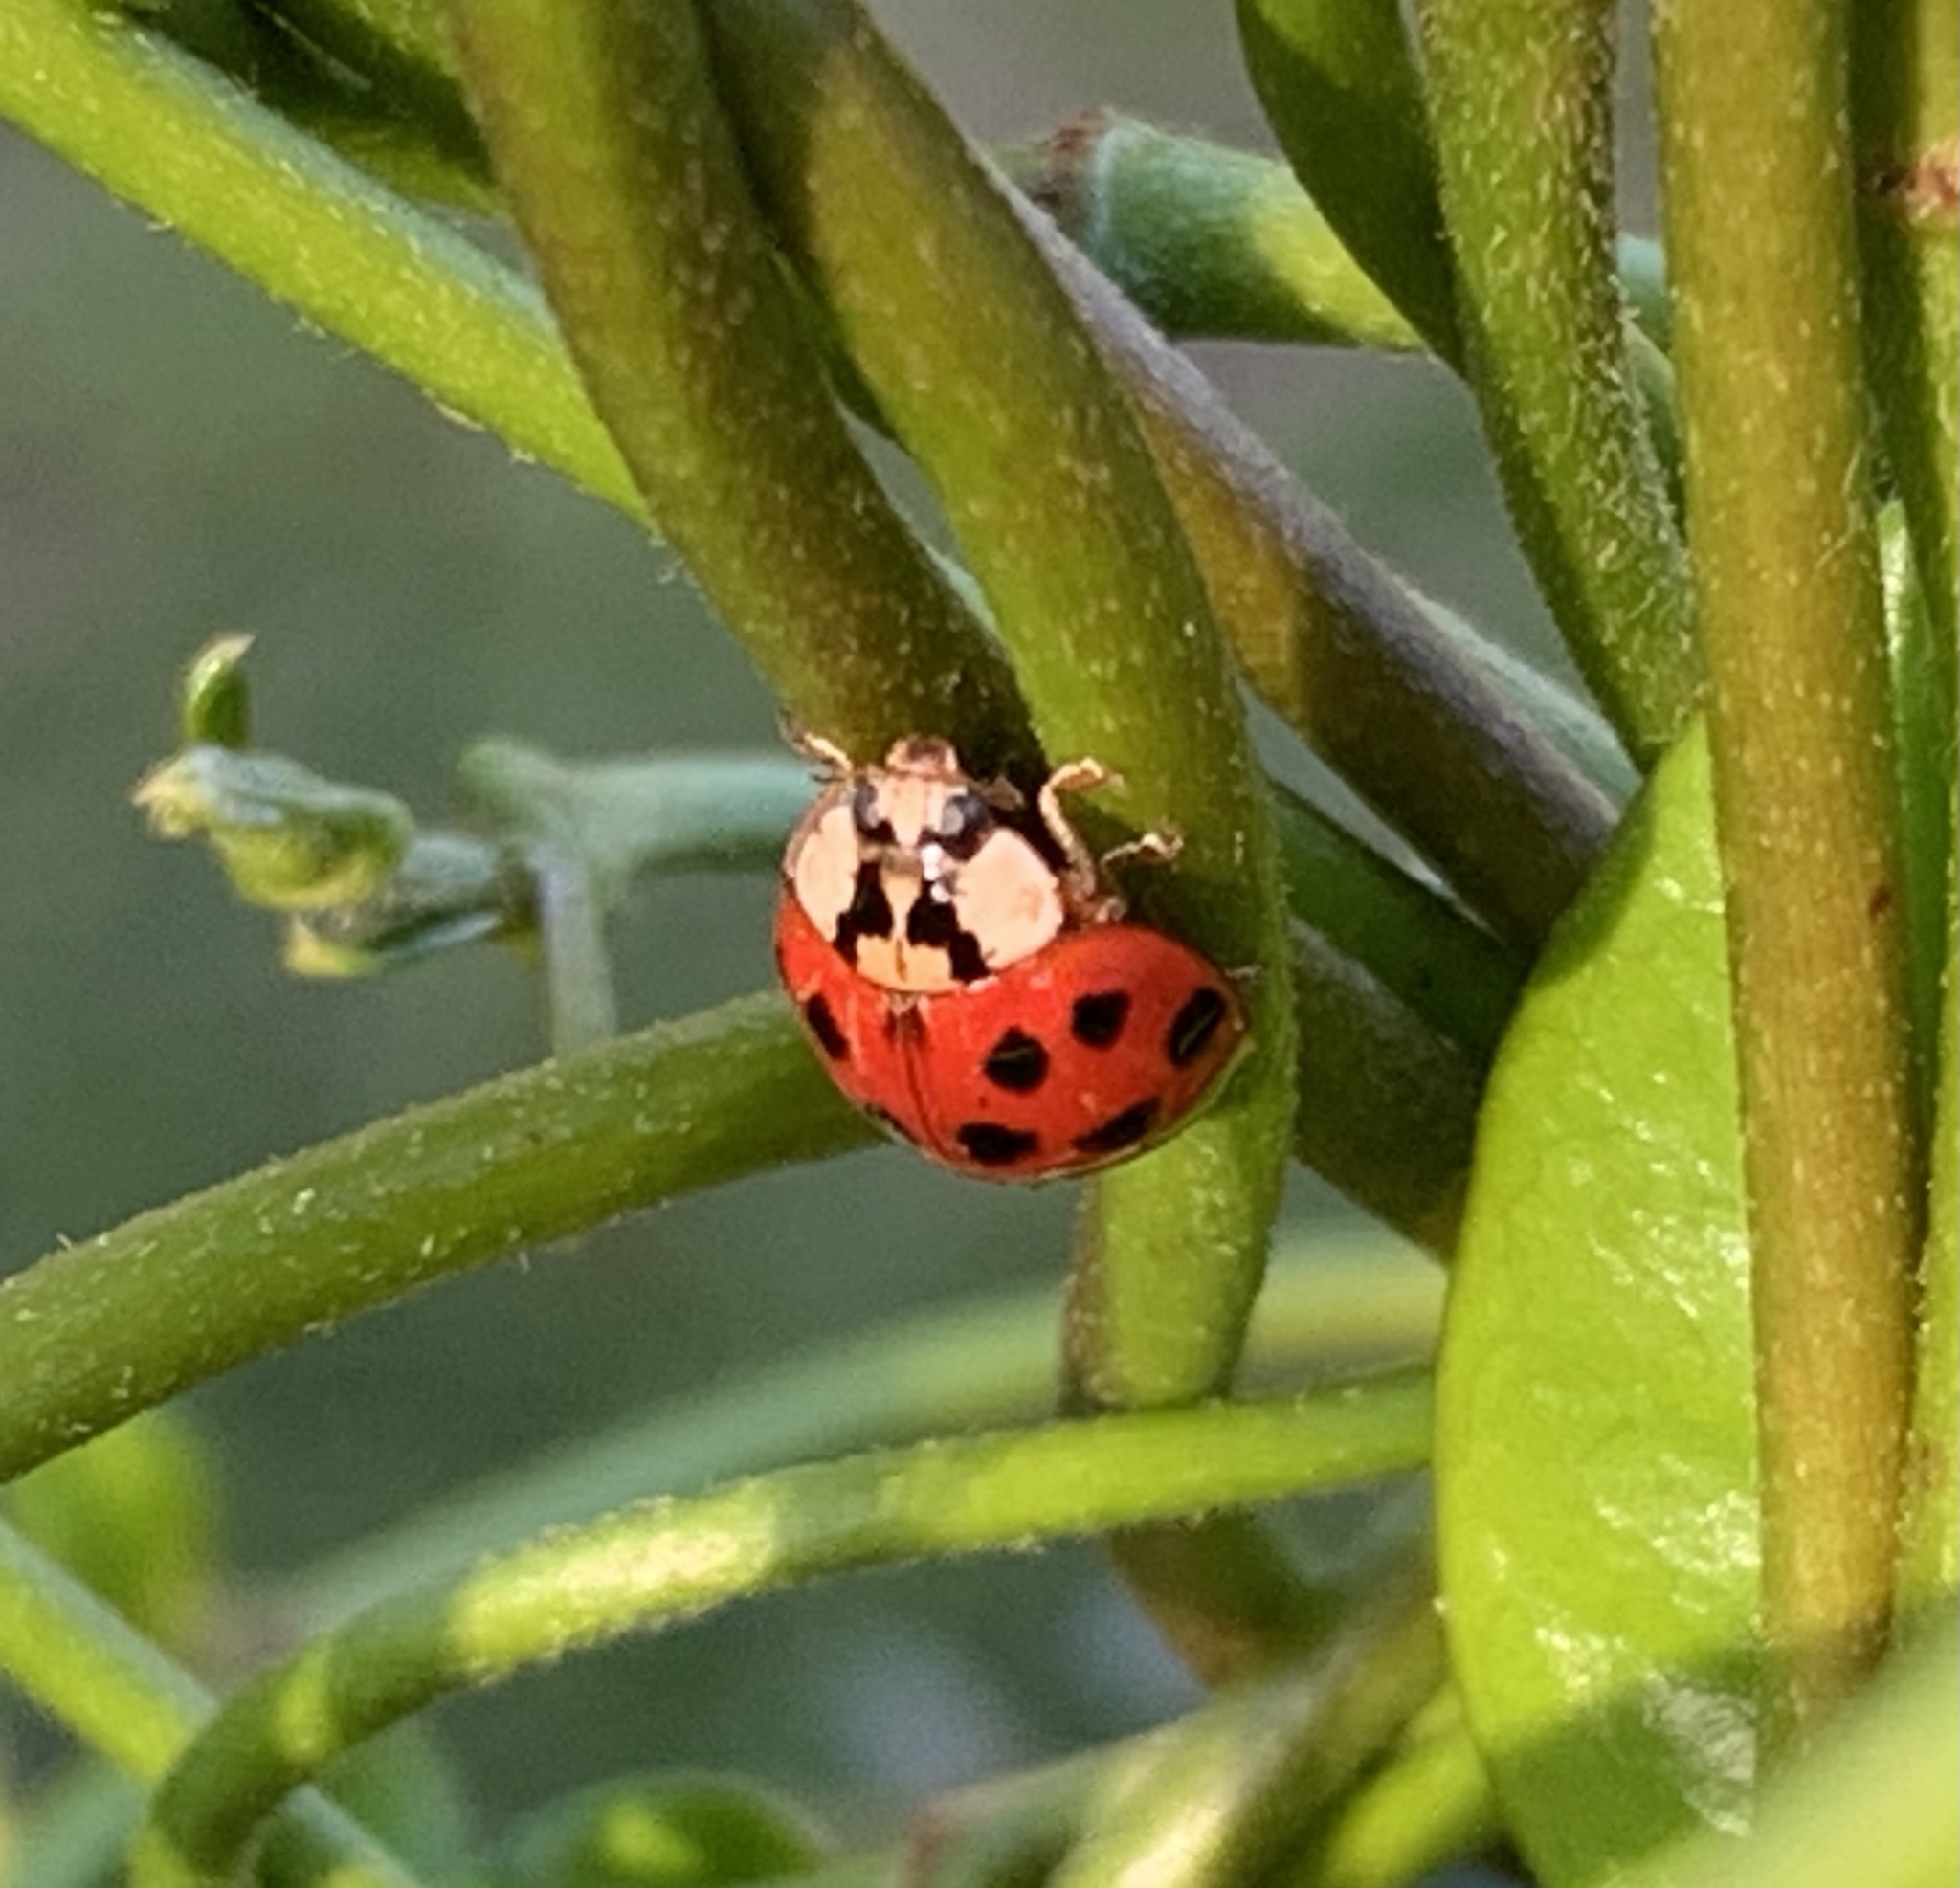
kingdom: Animalia
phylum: Arthropoda
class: Insecta
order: Coleoptera
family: Coccinellidae
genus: Harmonia
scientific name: Harmonia axyridis
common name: Harlequin ladybird
